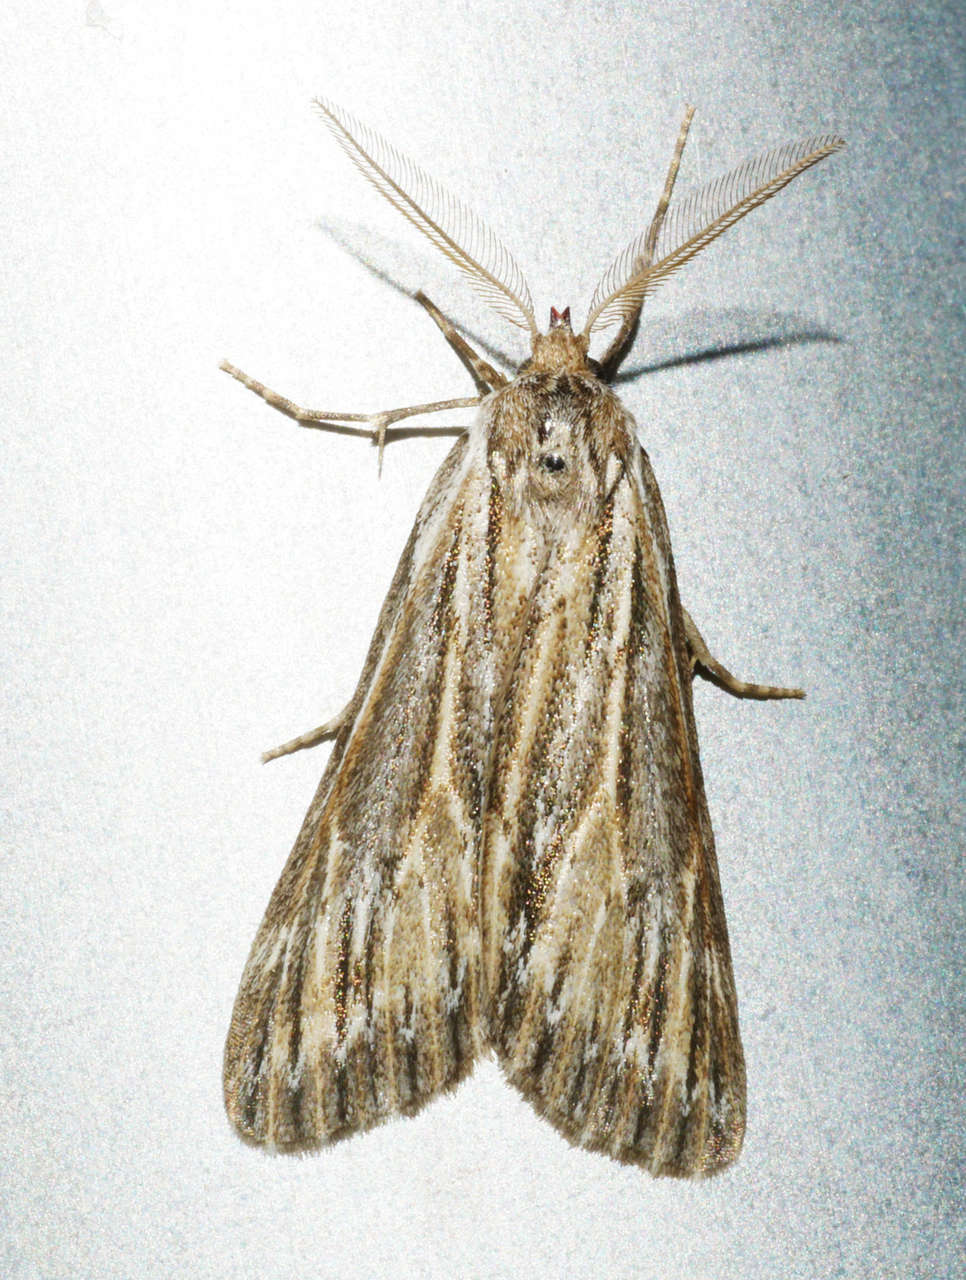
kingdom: Animalia
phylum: Arthropoda
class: Insecta
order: Lepidoptera
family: Geometridae
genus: Ciampa
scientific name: Ciampa arietaria
